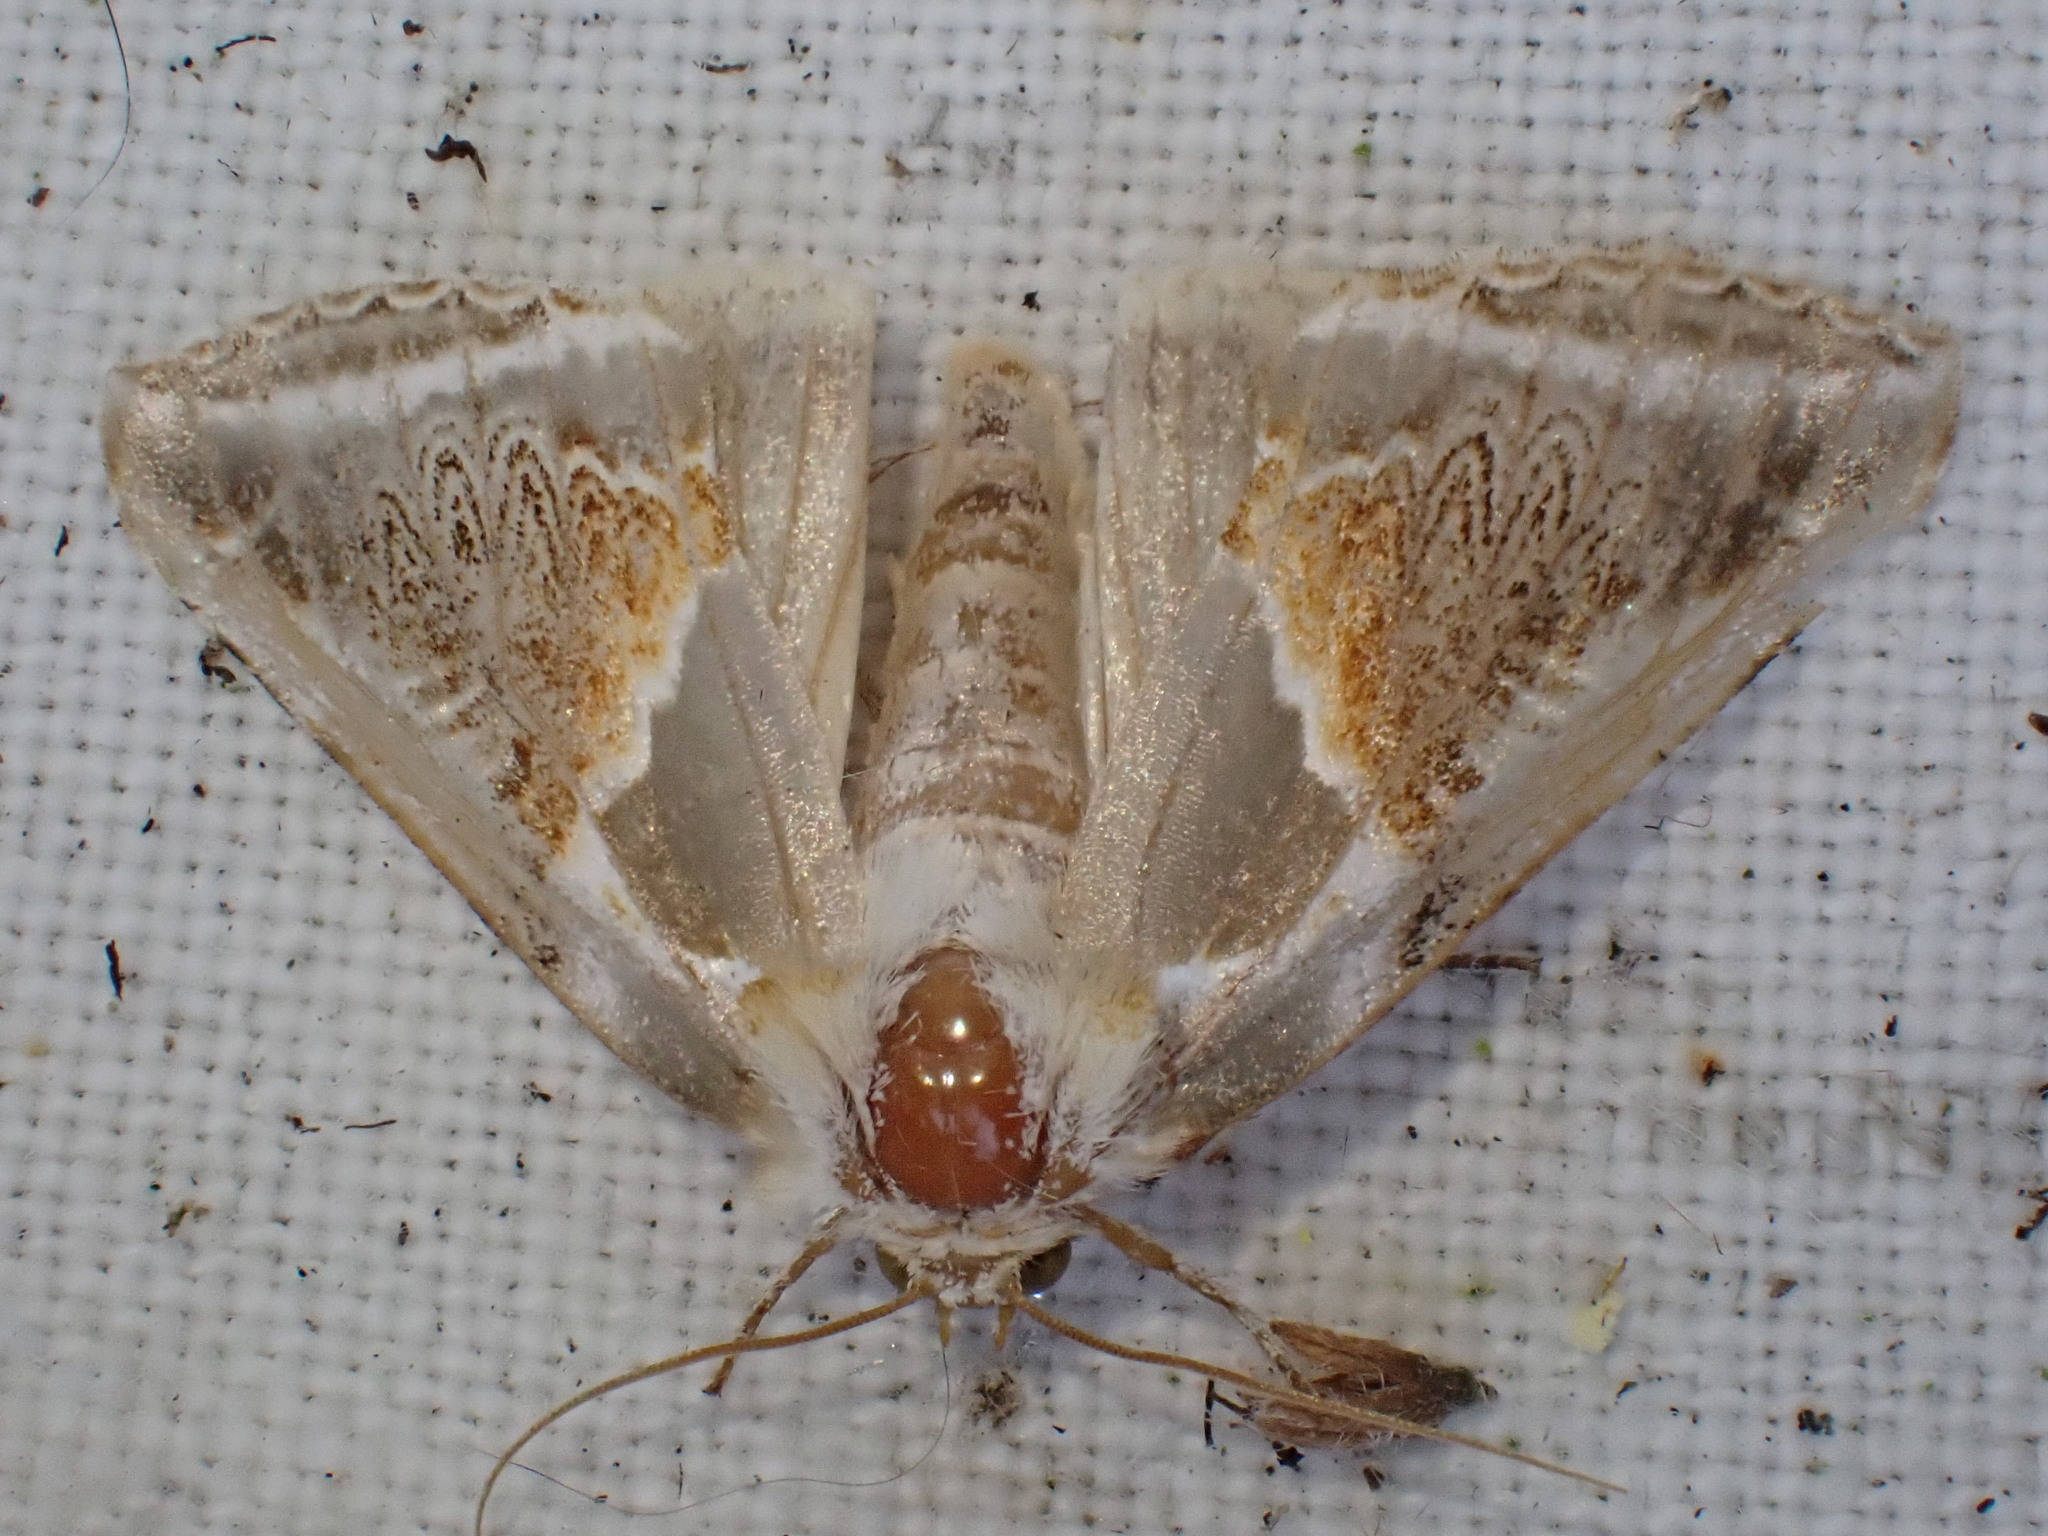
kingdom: Animalia
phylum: Arthropoda
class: Insecta
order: Lepidoptera
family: Drepanidae
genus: Habrosyne
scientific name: Habrosyne pyritoides
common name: Buff arches
